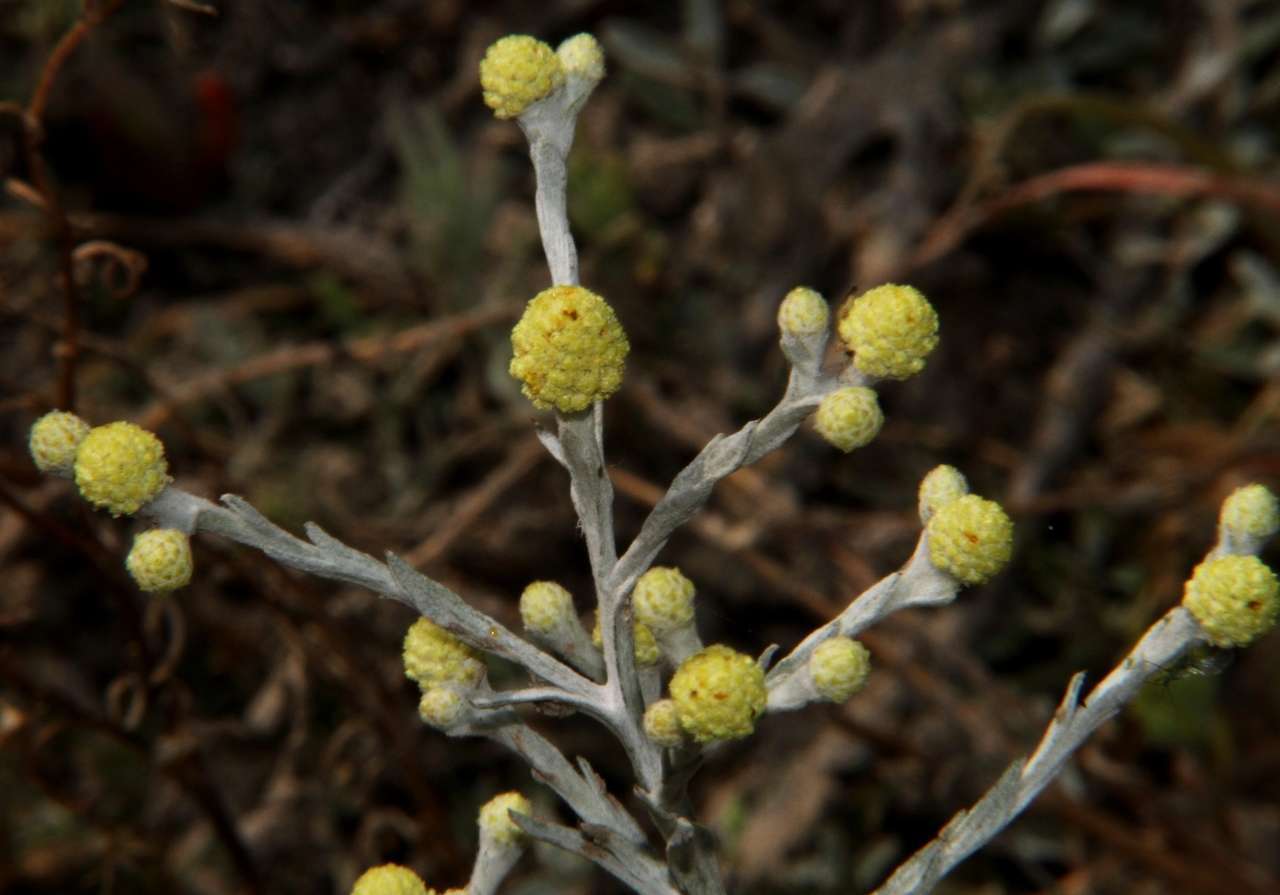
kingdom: Plantae
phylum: Tracheophyta
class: Magnoliopsida
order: Asterales
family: Asteraceae
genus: Calocephalus
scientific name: Calocephalus sonderi
